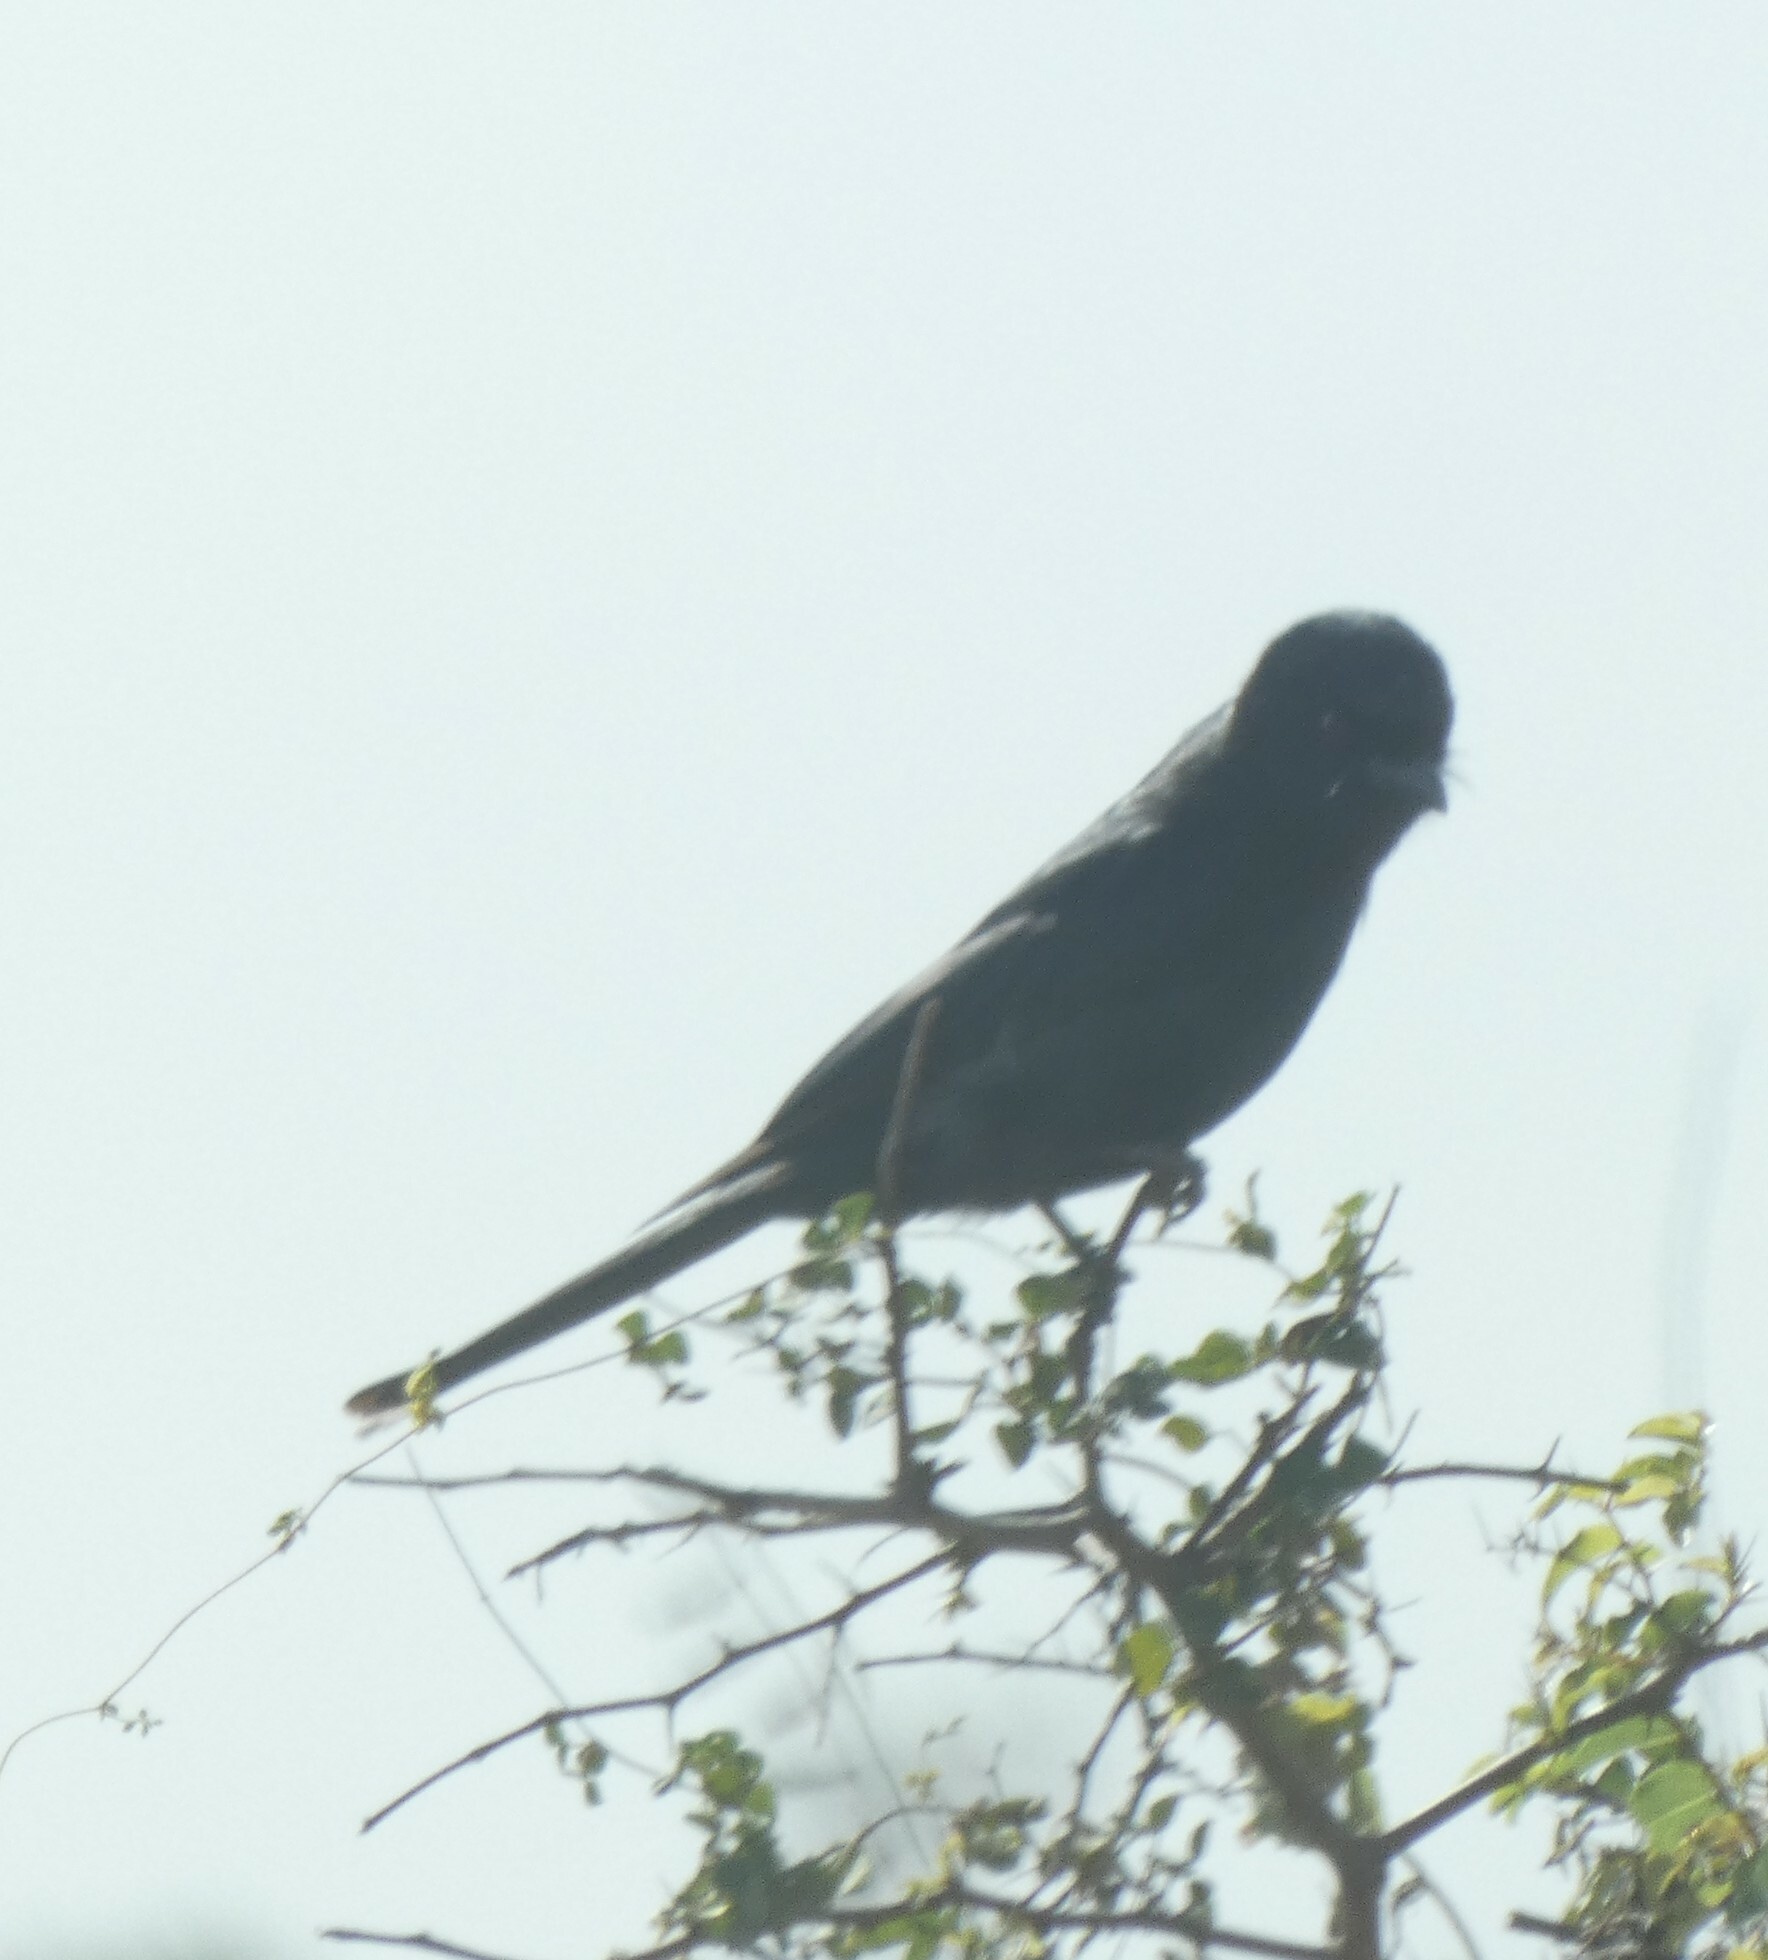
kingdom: Animalia
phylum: Chordata
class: Aves
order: Passeriformes
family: Paridae
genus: Parus
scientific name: Parus niger
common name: Southern black tit
